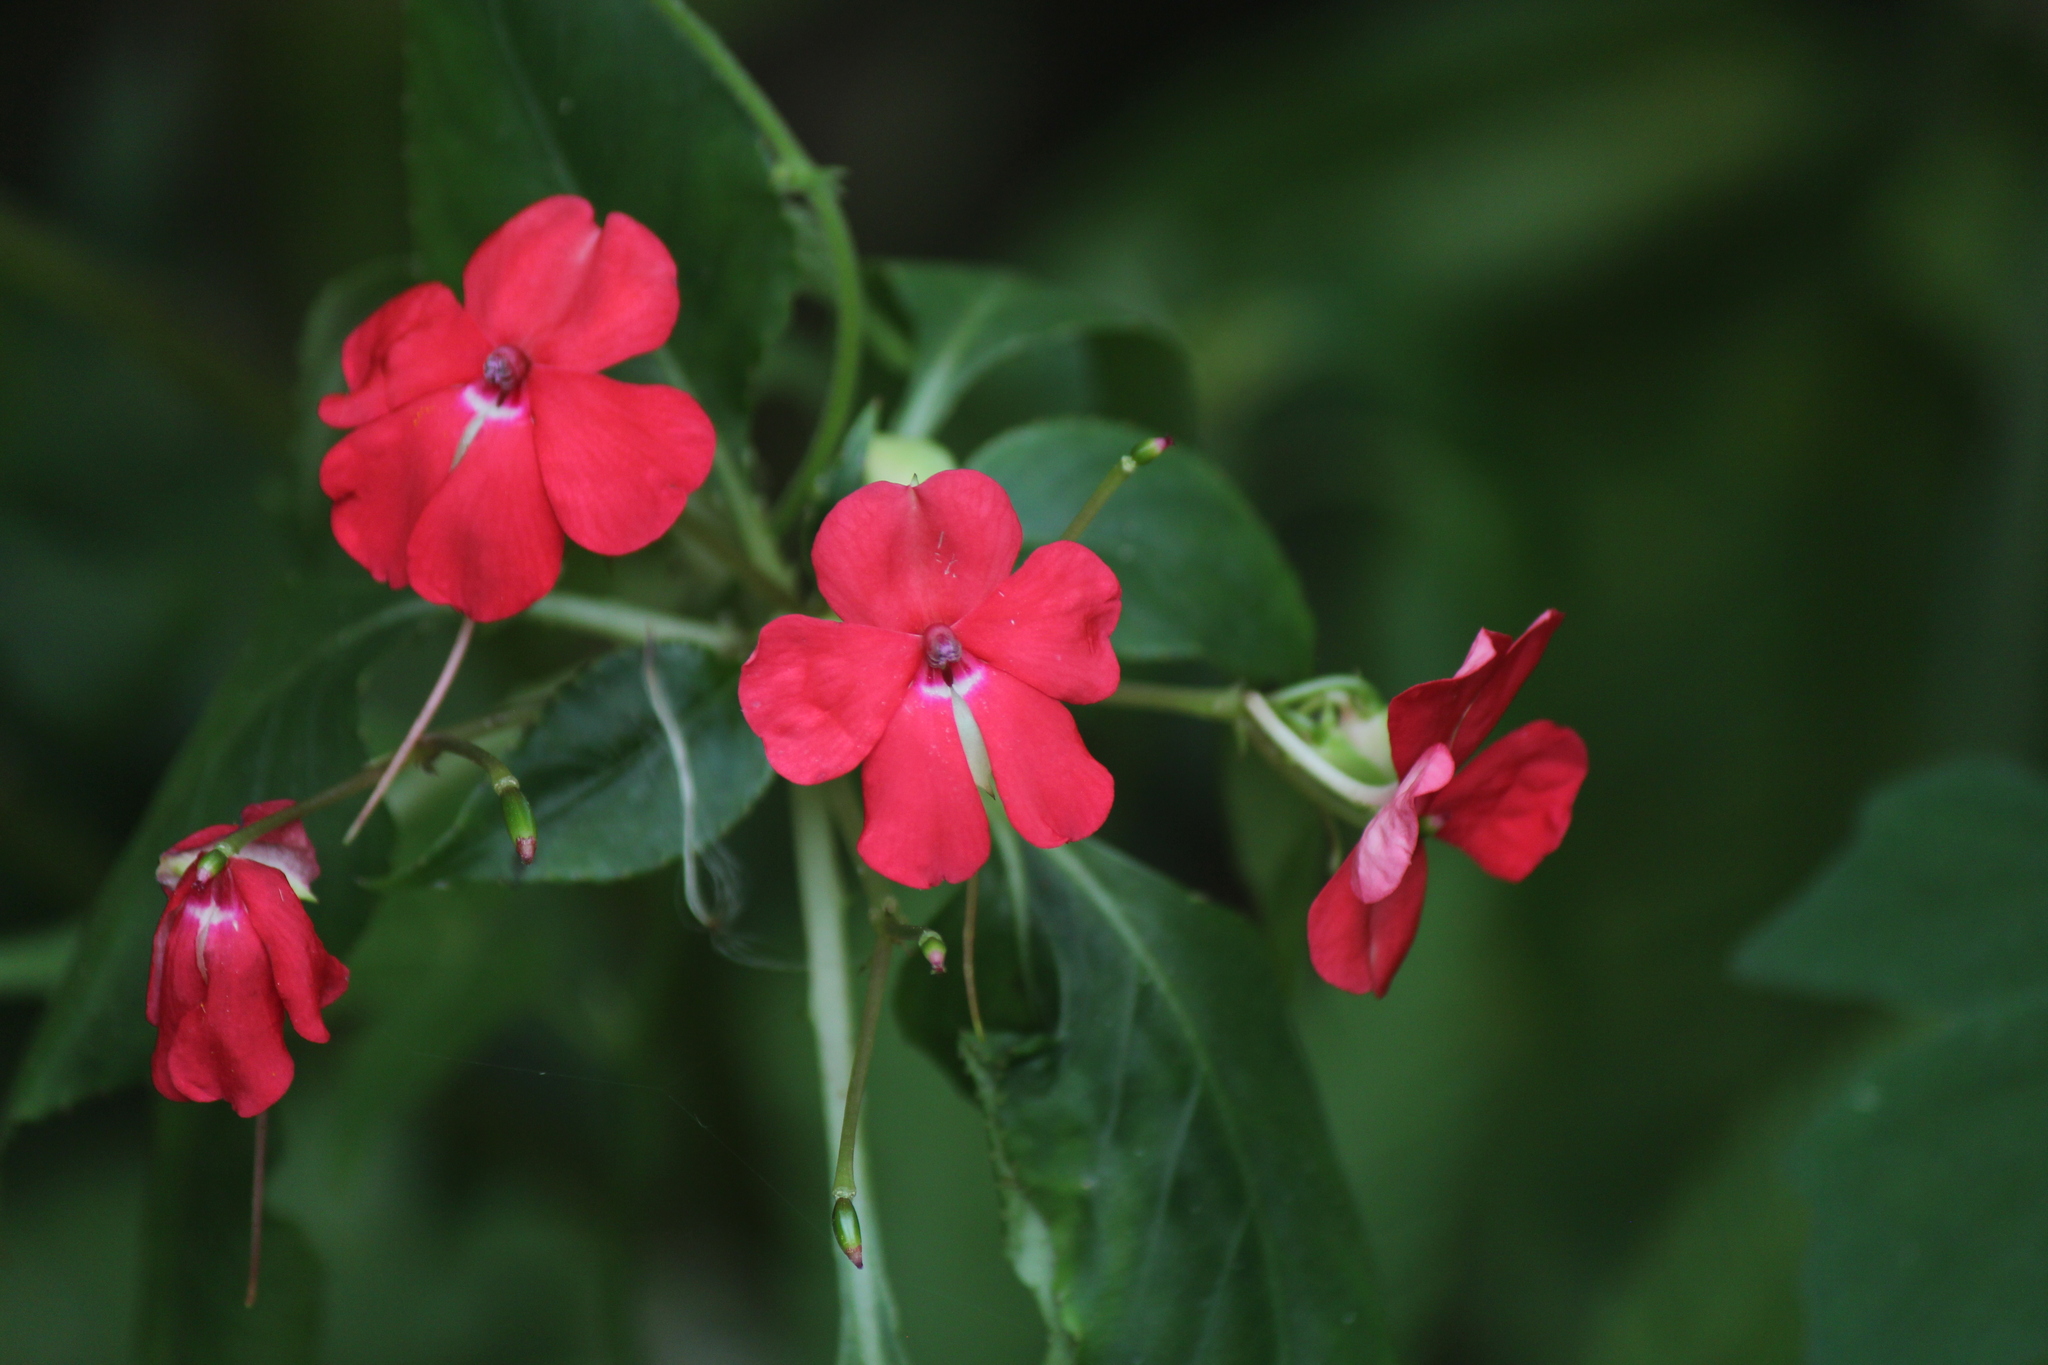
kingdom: Plantae
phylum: Tracheophyta
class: Magnoliopsida
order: Ericales
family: Balsaminaceae
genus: Impatiens
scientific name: Impatiens walleriana
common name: Buzzy lizzy
